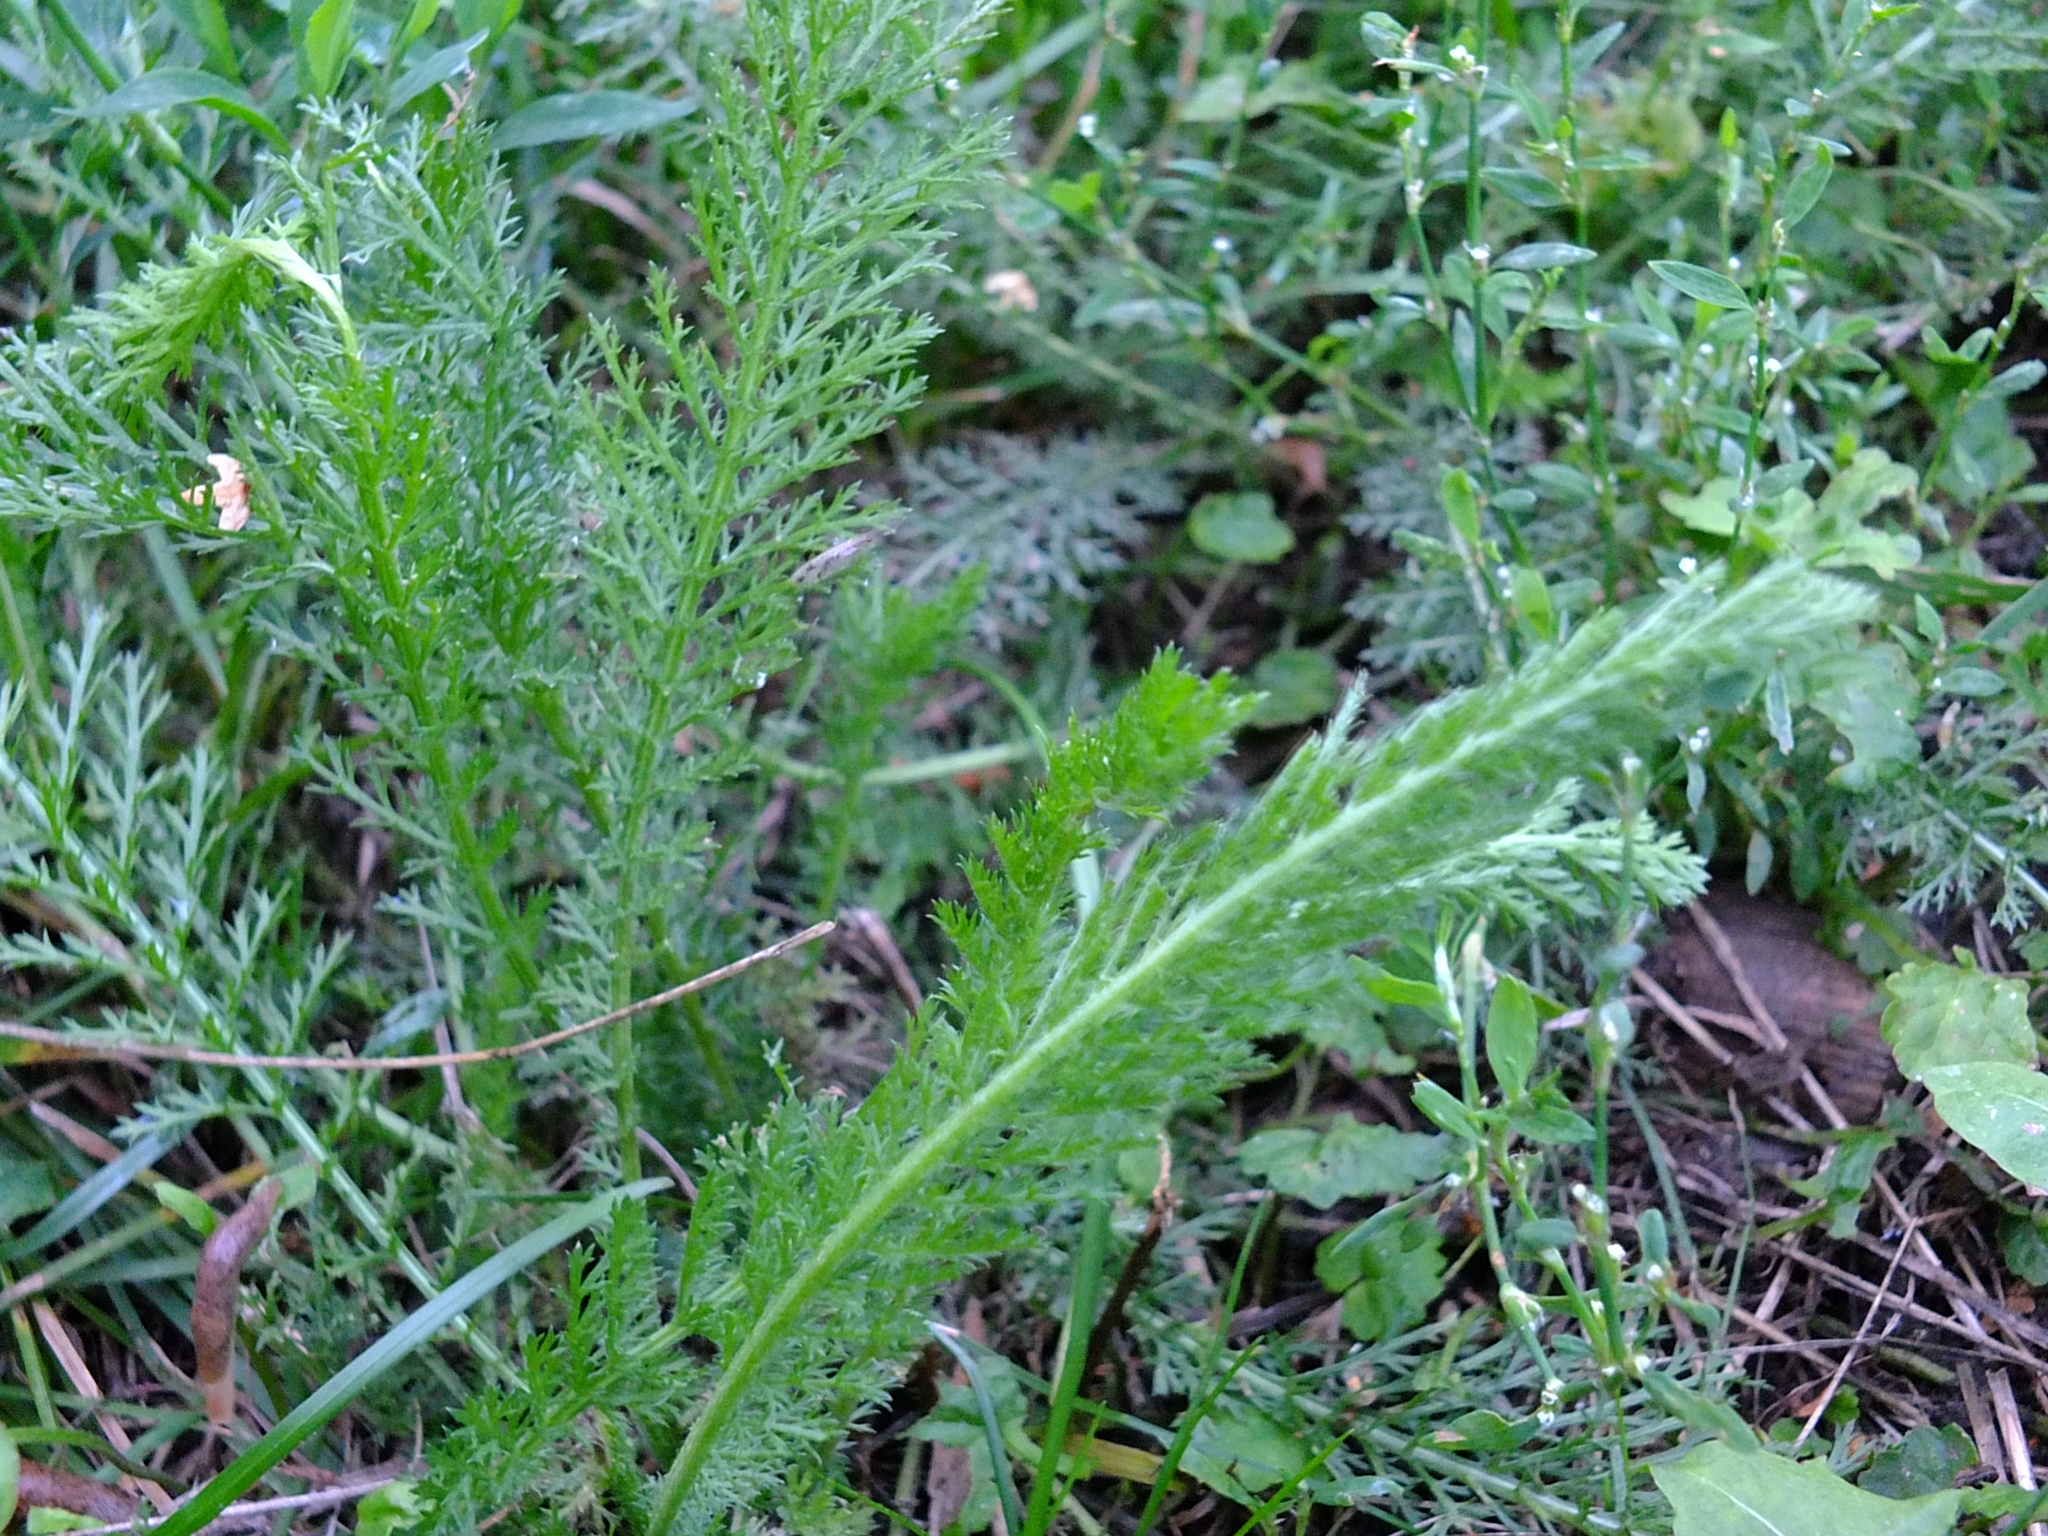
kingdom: Plantae
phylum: Tracheophyta
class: Magnoliopsida
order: Asterales
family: Asteraceae
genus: Achillea
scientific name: Achillea millefolium
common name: Yarrow
